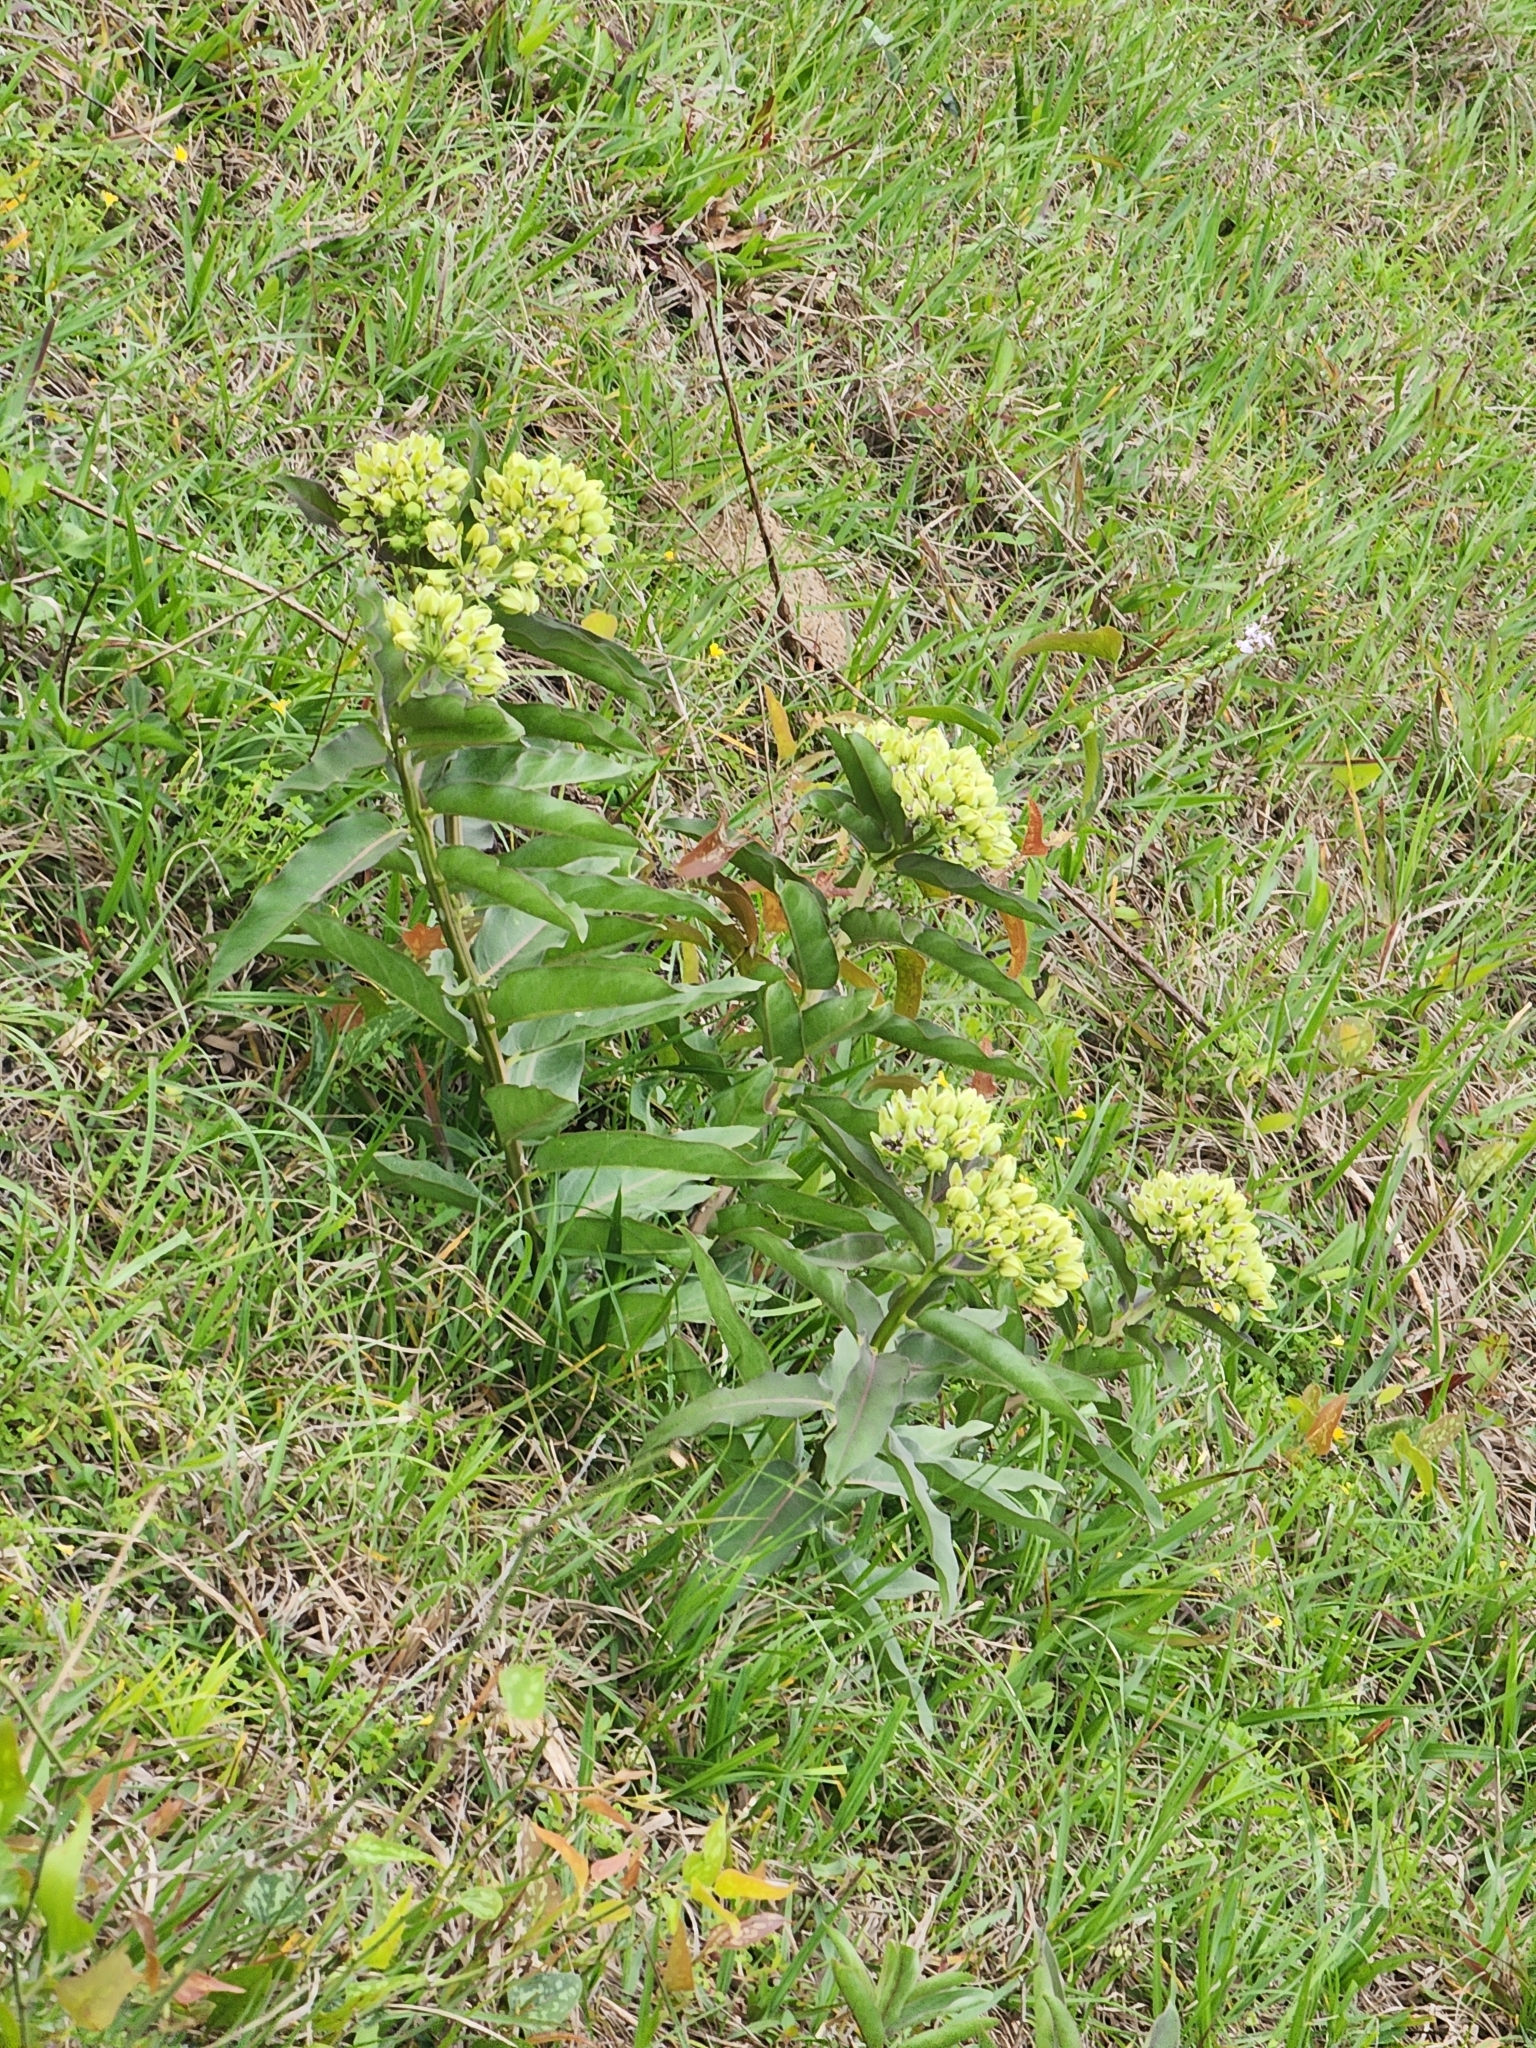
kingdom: Plantae
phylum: Tracheophyta
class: Magnoliopsida
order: Gentianales
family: Apocynaceae
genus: Asclepias
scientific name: Asclepias viridis
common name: Antelope-horns
